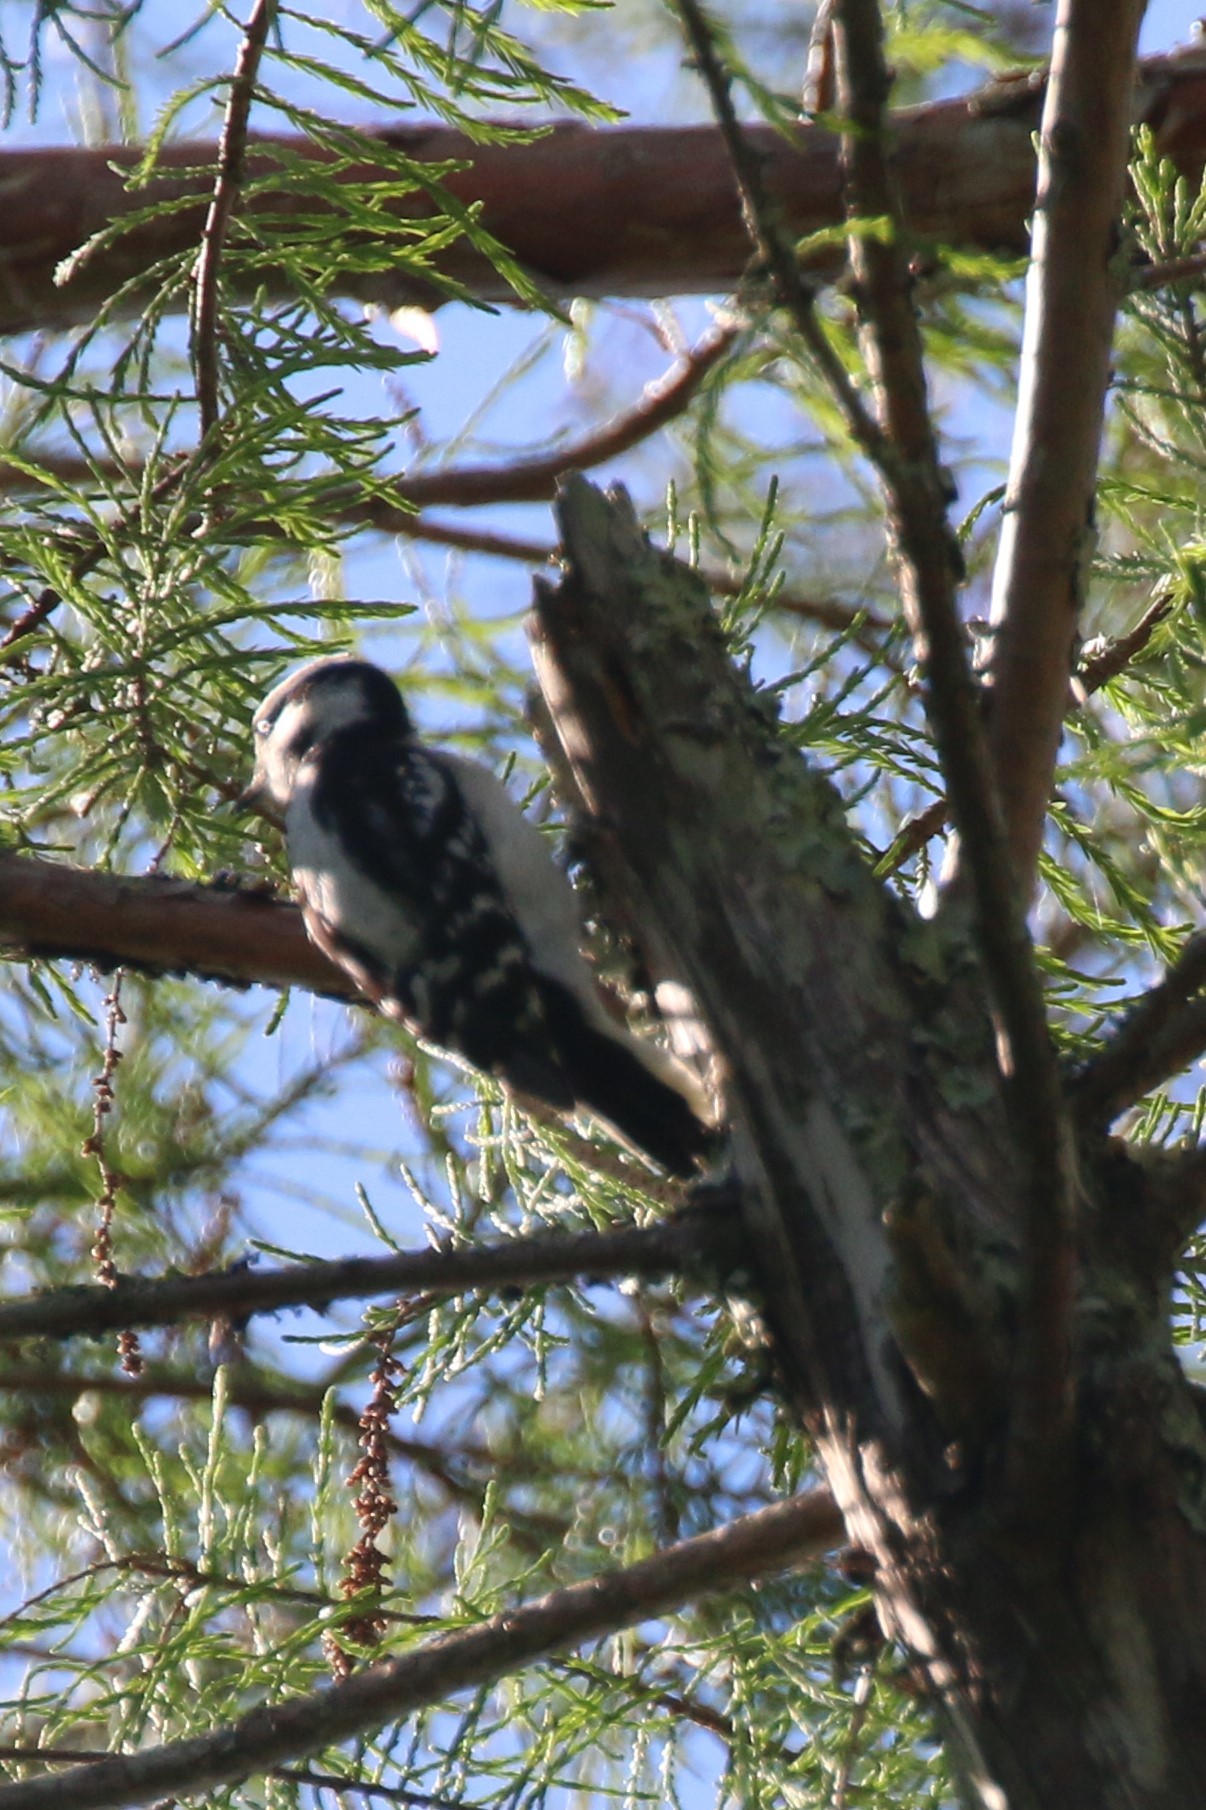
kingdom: Animalia
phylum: Chordata
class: Aves
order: Piciformes
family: Picidae
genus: Dryobates
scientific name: Dryobates pubescens
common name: Downy woodpecker
